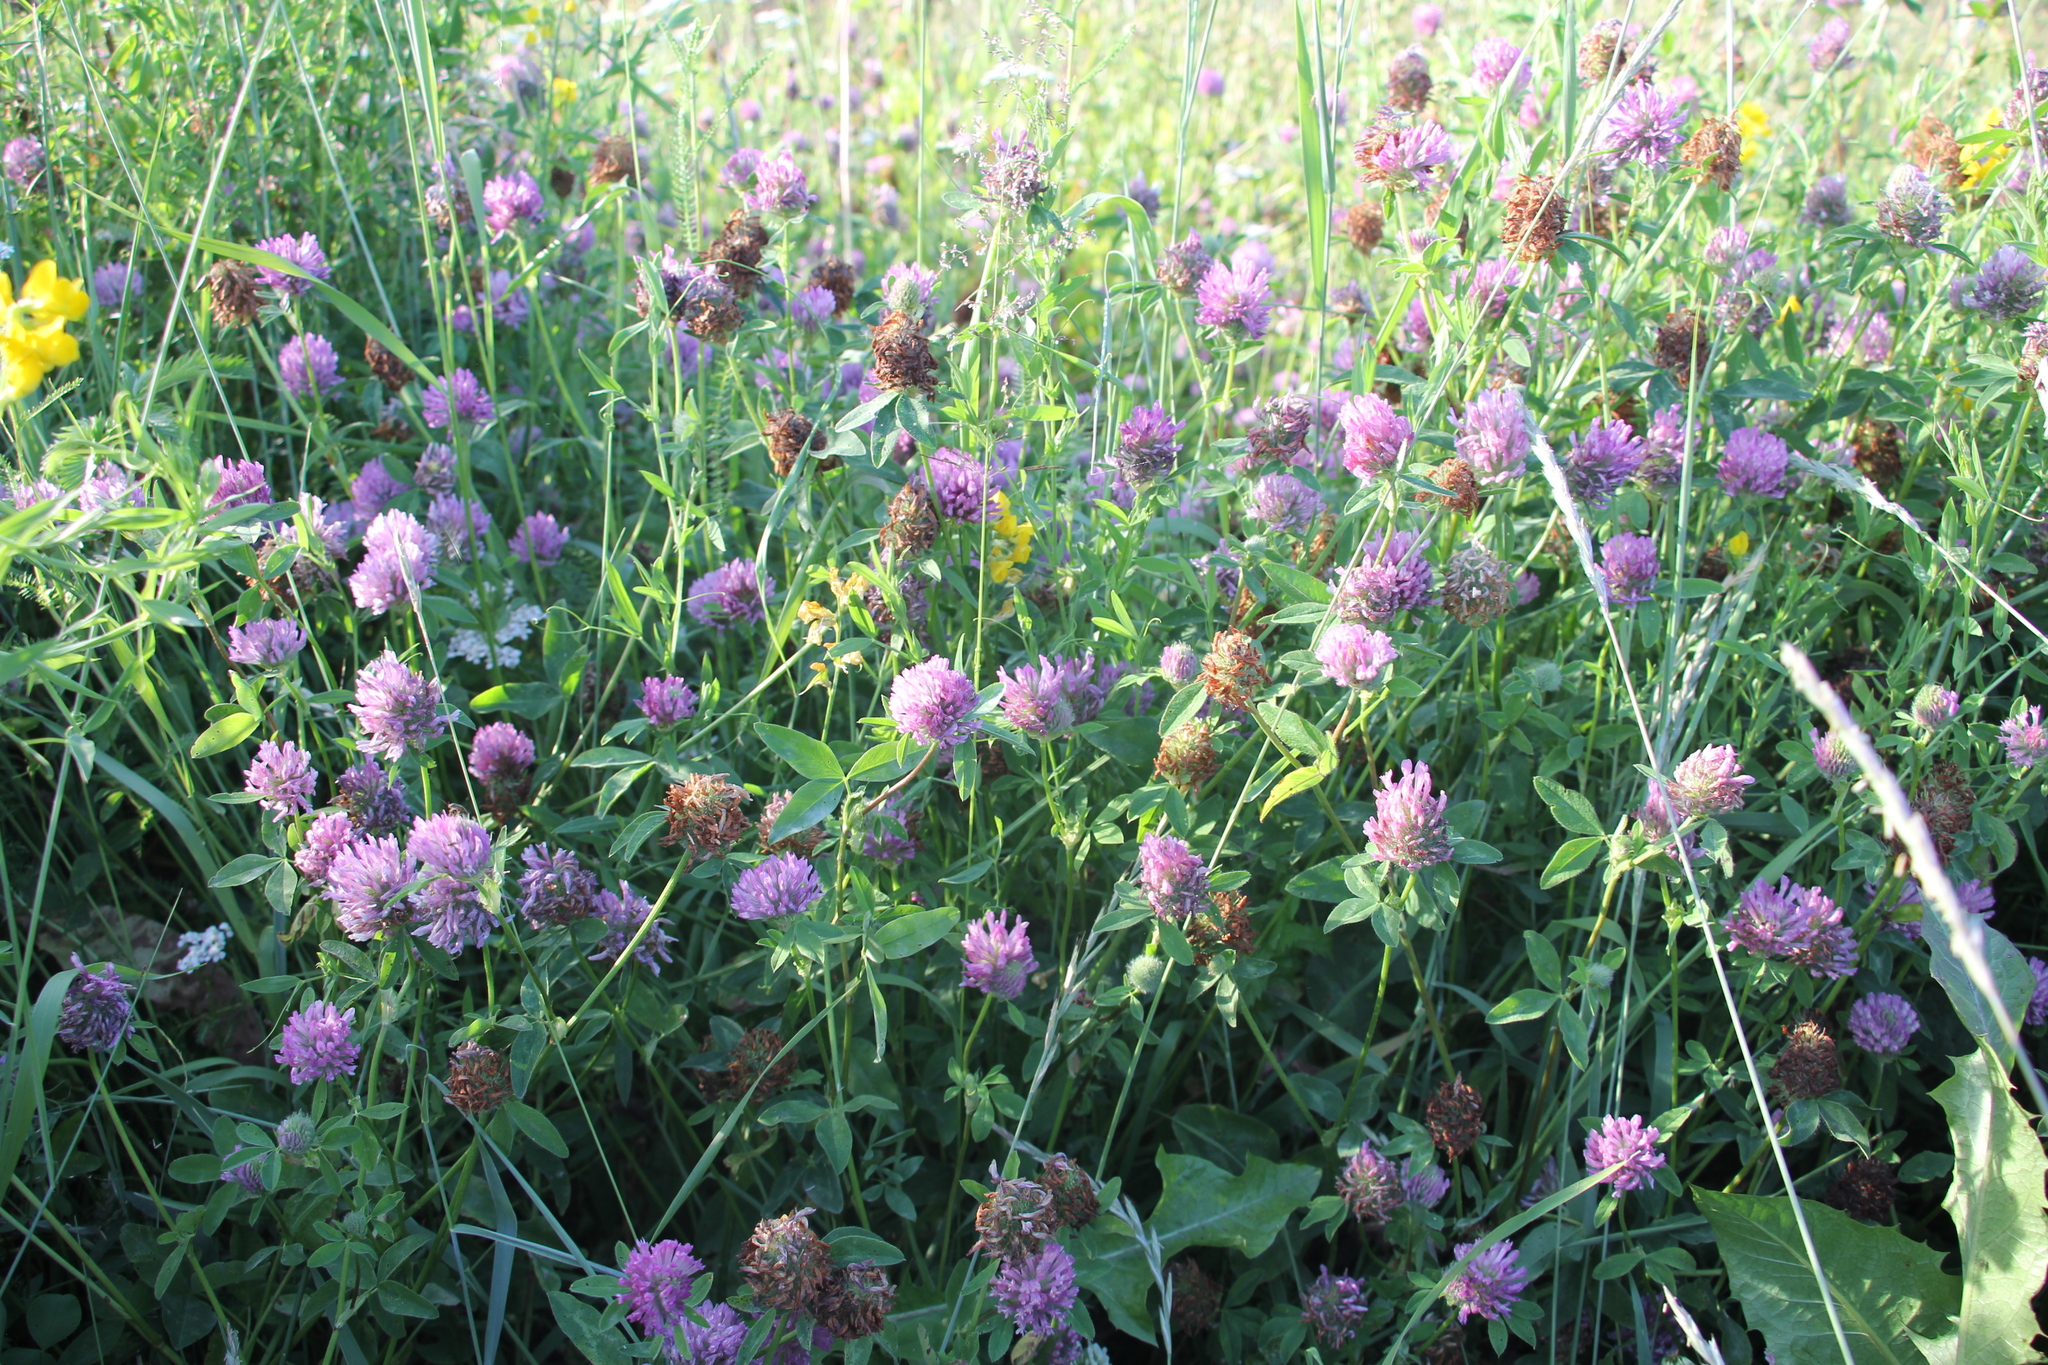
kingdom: Plantae
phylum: Tracheophyta
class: Magnoliopsida
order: Fabales
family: Fabaceae
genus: Trifolium
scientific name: Trifolium pratense
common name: Red clover
